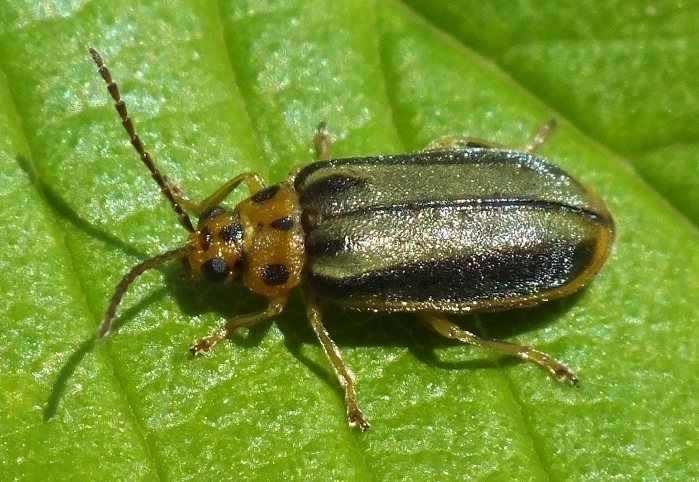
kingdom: Animalia
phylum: Arthropoda
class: Insecta
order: Coleoptera
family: Chrysomelidae
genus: Xanthogaleruca
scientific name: Xanthogaleruca luteola
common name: Elm leaf beetle
